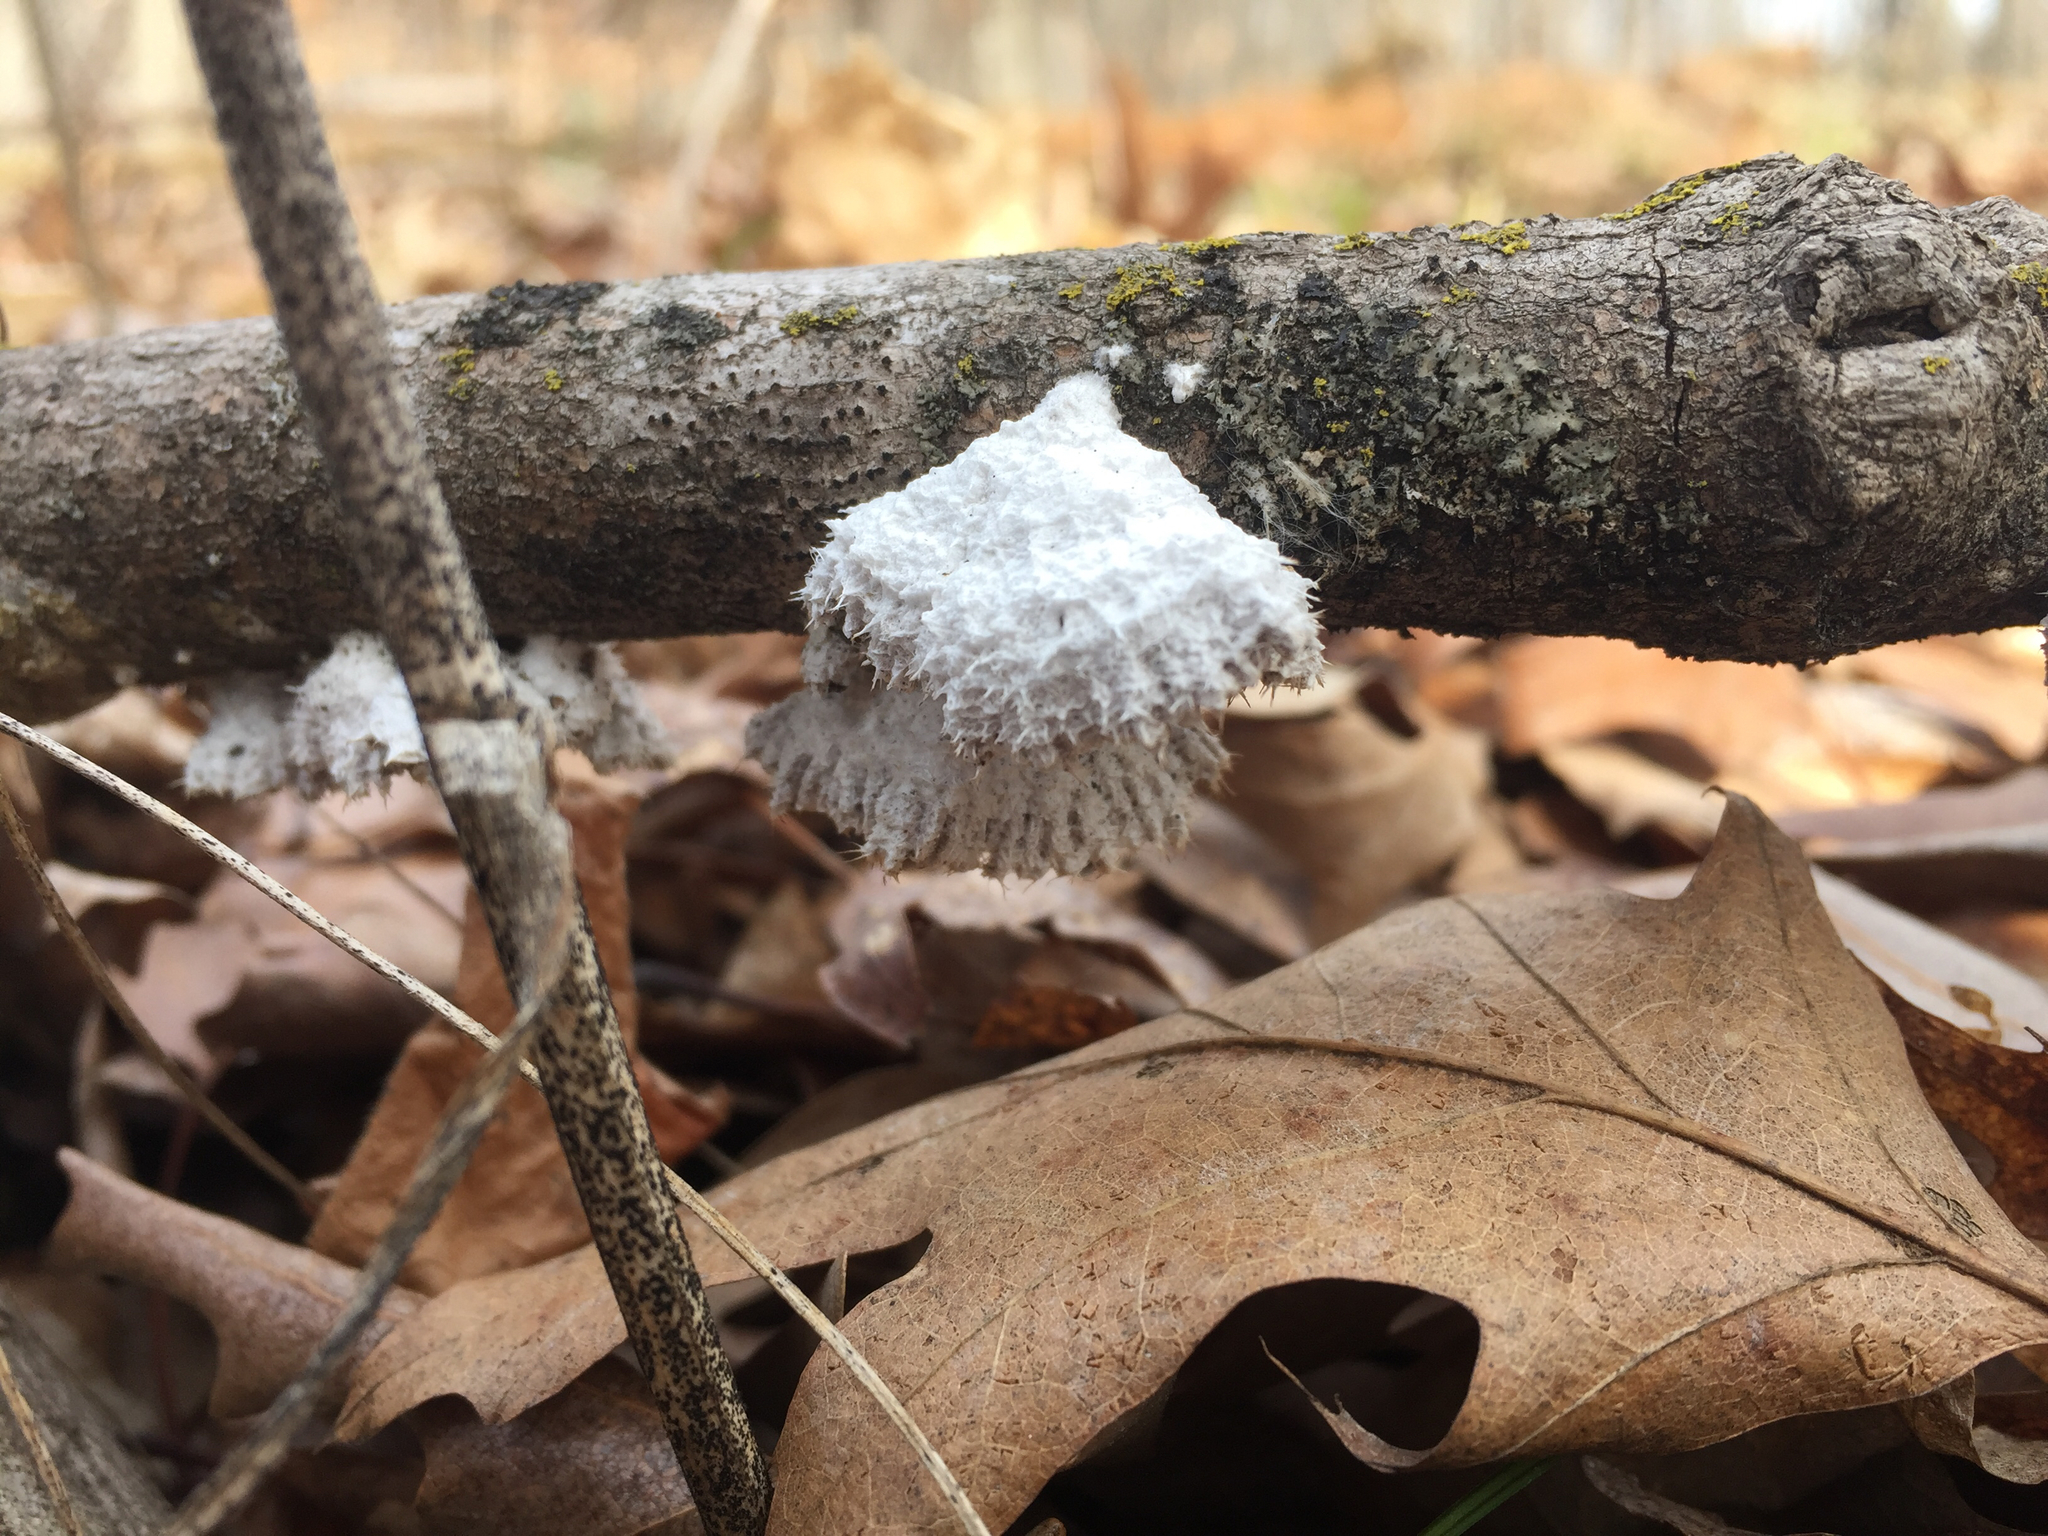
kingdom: Fungi
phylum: Basidiomycota
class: Agaricomycetes
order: Agaricales
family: Schizophyllaceae
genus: Schizophyllum
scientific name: Schizophyllum commune
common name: Common porecrust
